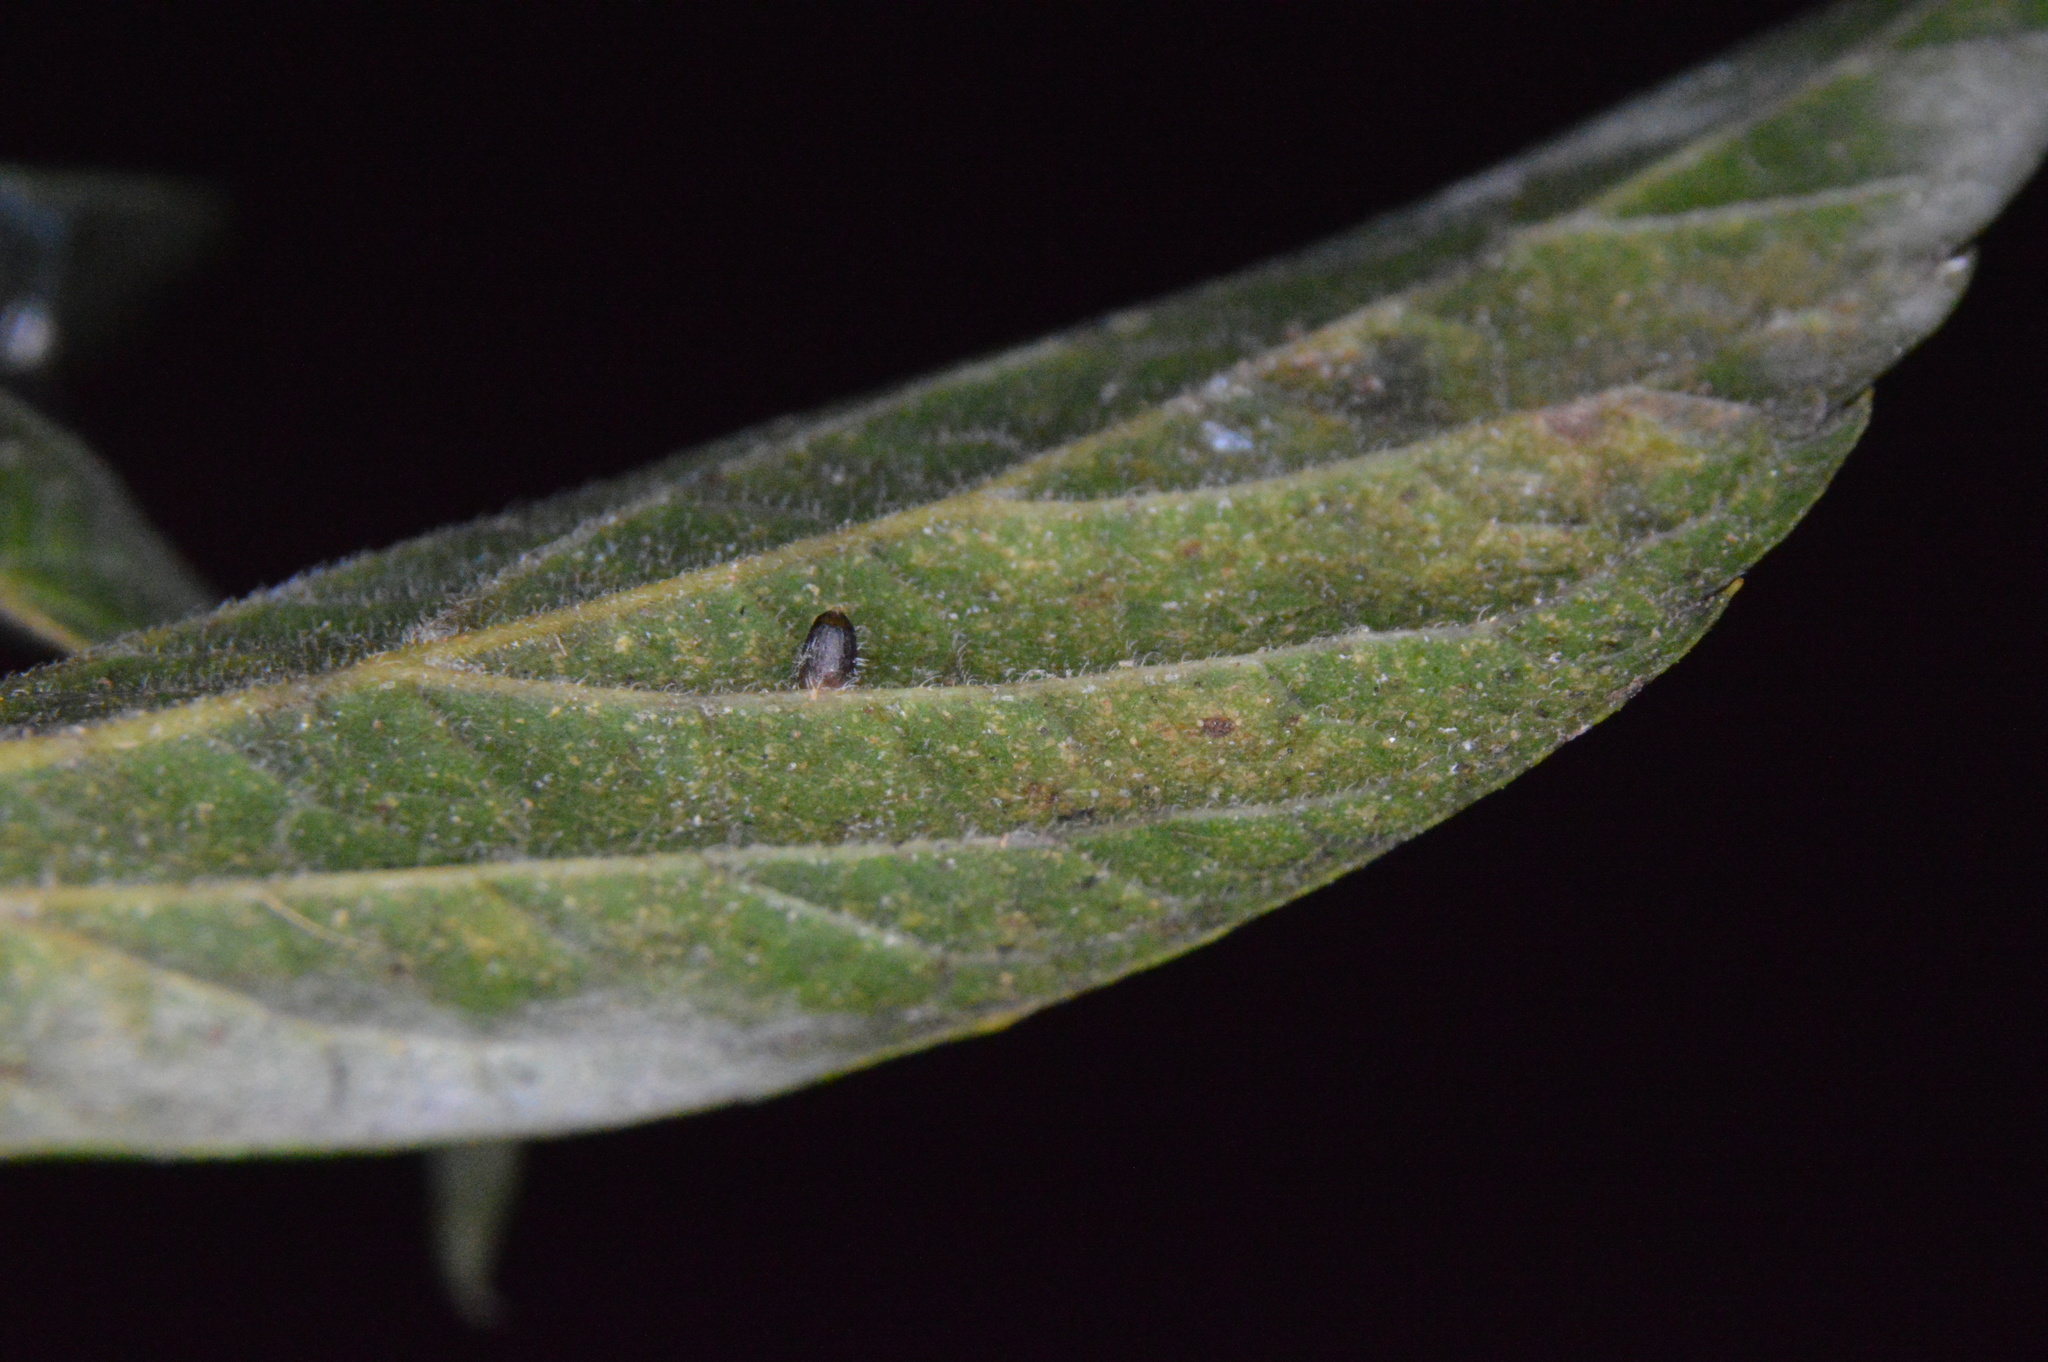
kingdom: Animalia
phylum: Arthropoda
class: Insecta
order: Diptera
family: Cecidomyiidae
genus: Celticecis
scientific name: Celticecis cupiformis
